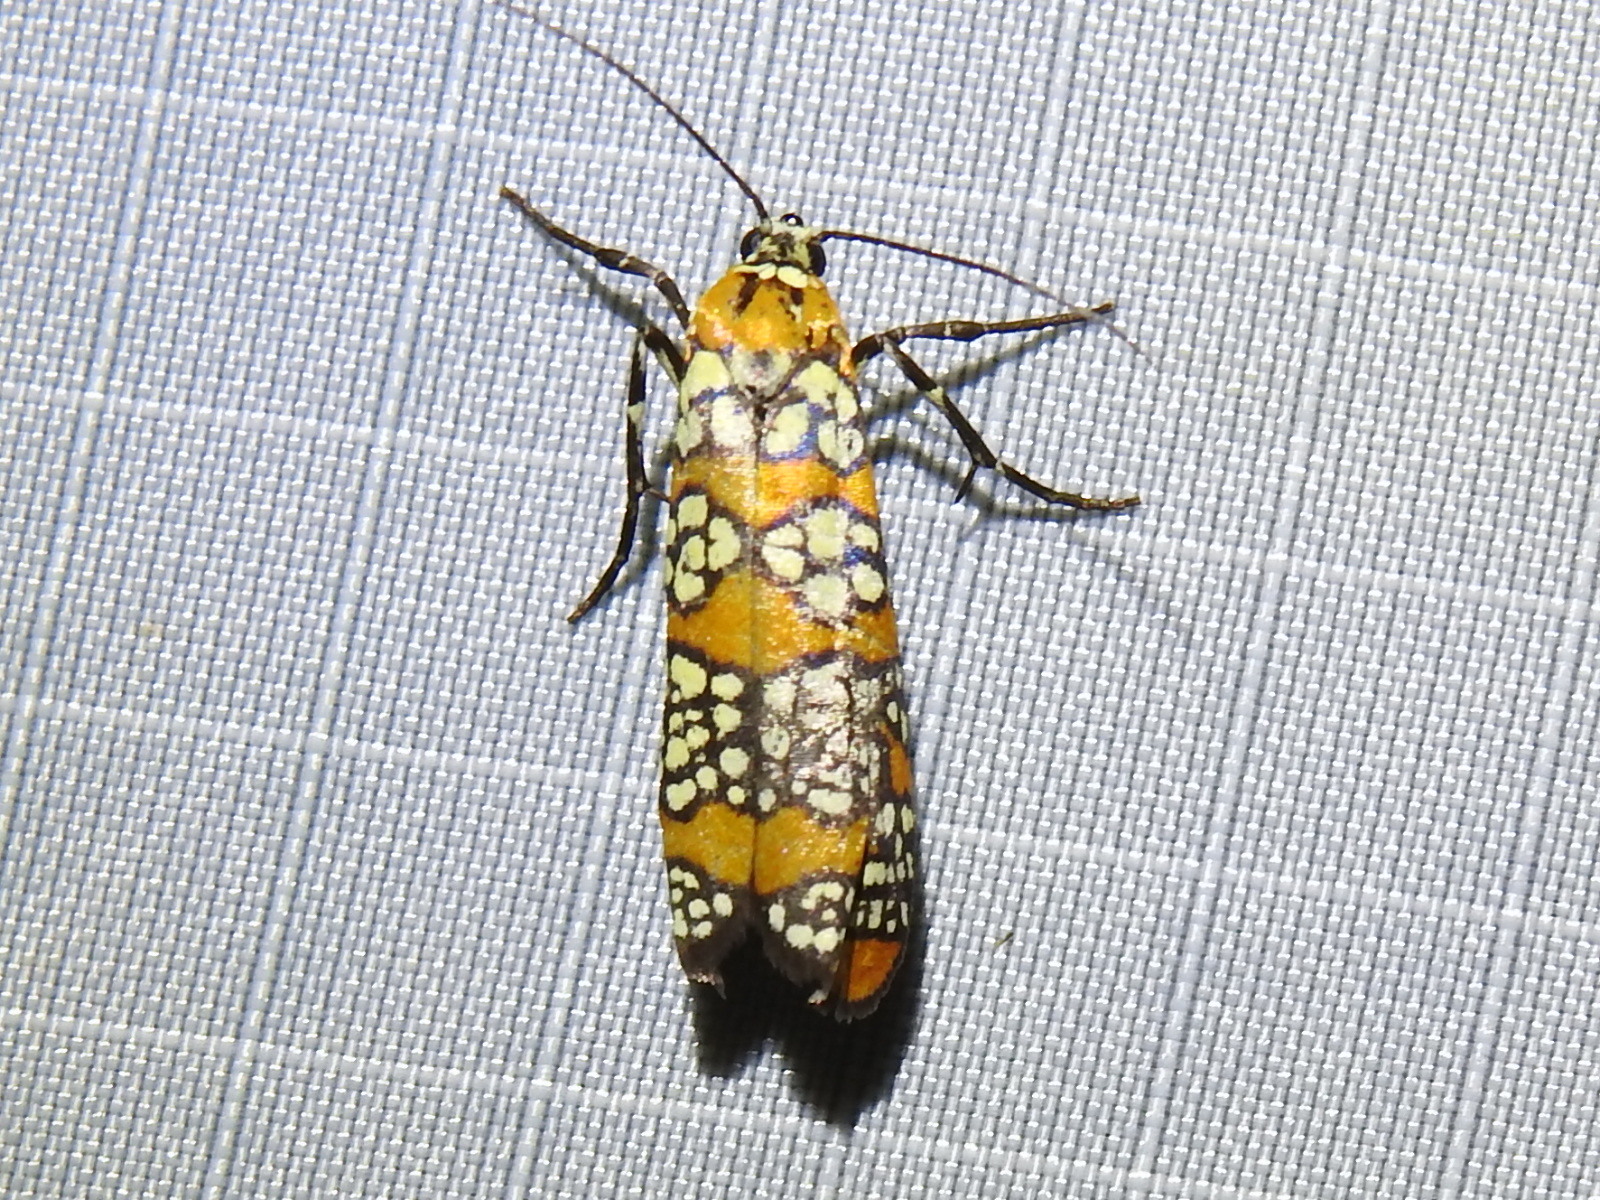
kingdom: Animalia
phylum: Arthropoda
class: Insecta
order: Lepidoptera
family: Attevidae
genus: Atteva
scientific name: Atteva punctella
